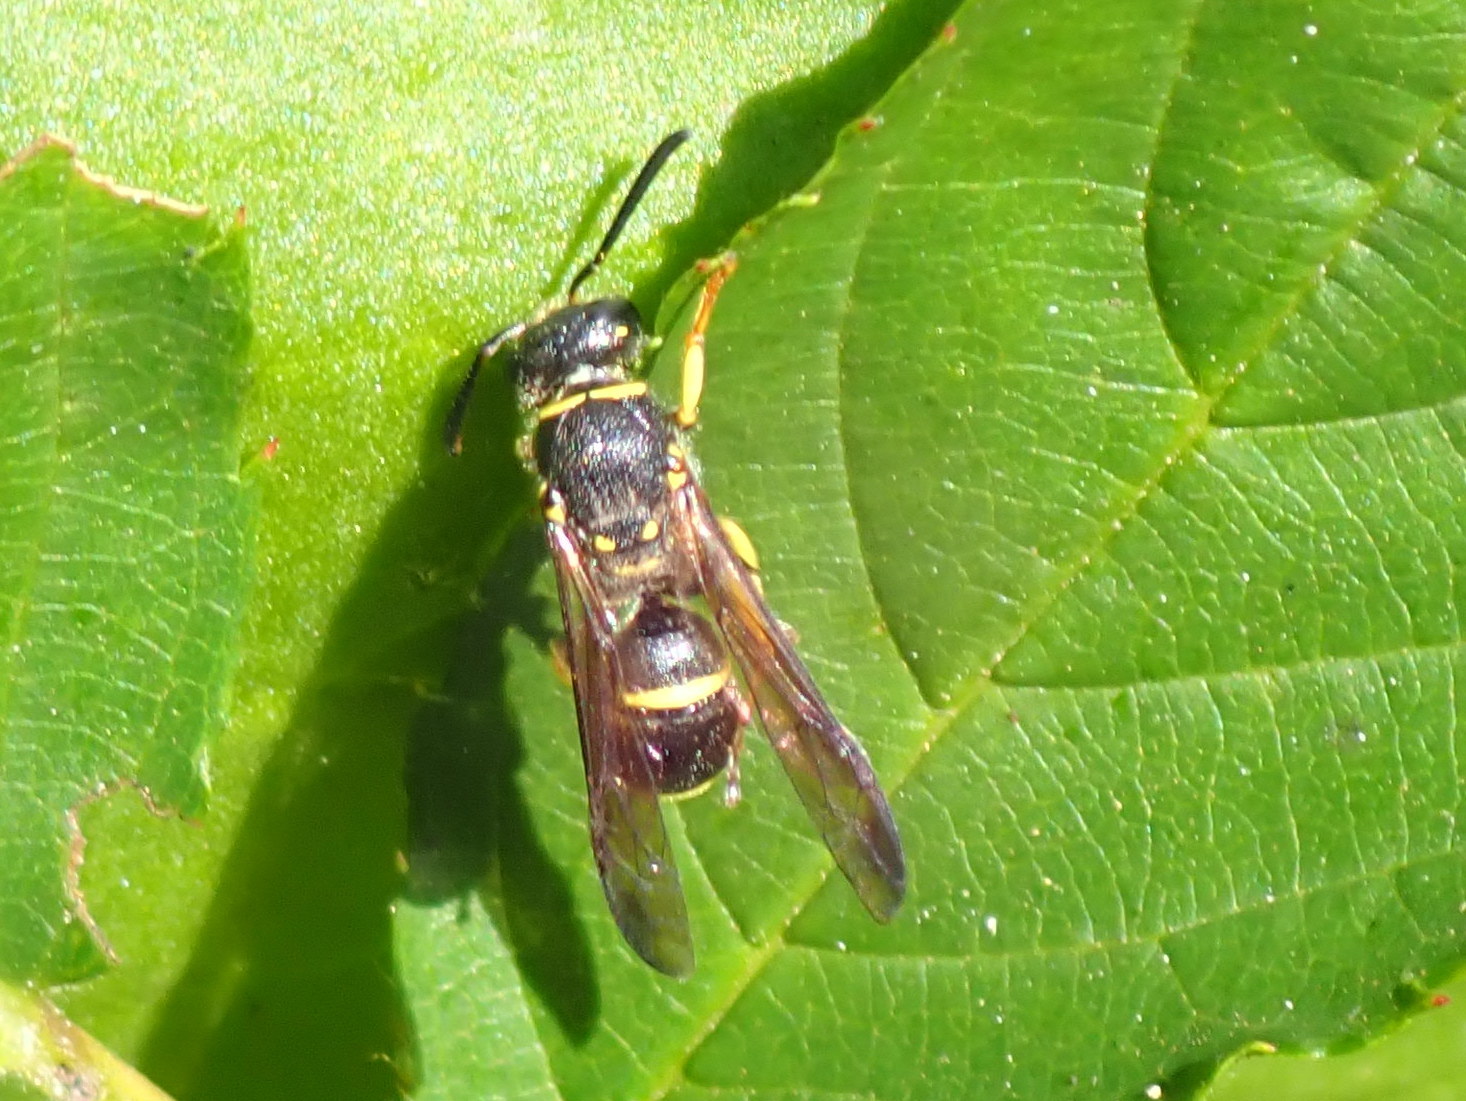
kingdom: Animalia
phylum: Arthropoda
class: Insecta
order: Hymenoptera
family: Vespidae
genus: Ancistrocerus
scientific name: Ancistrocerus adiabatus
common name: Bramble mason wasp
